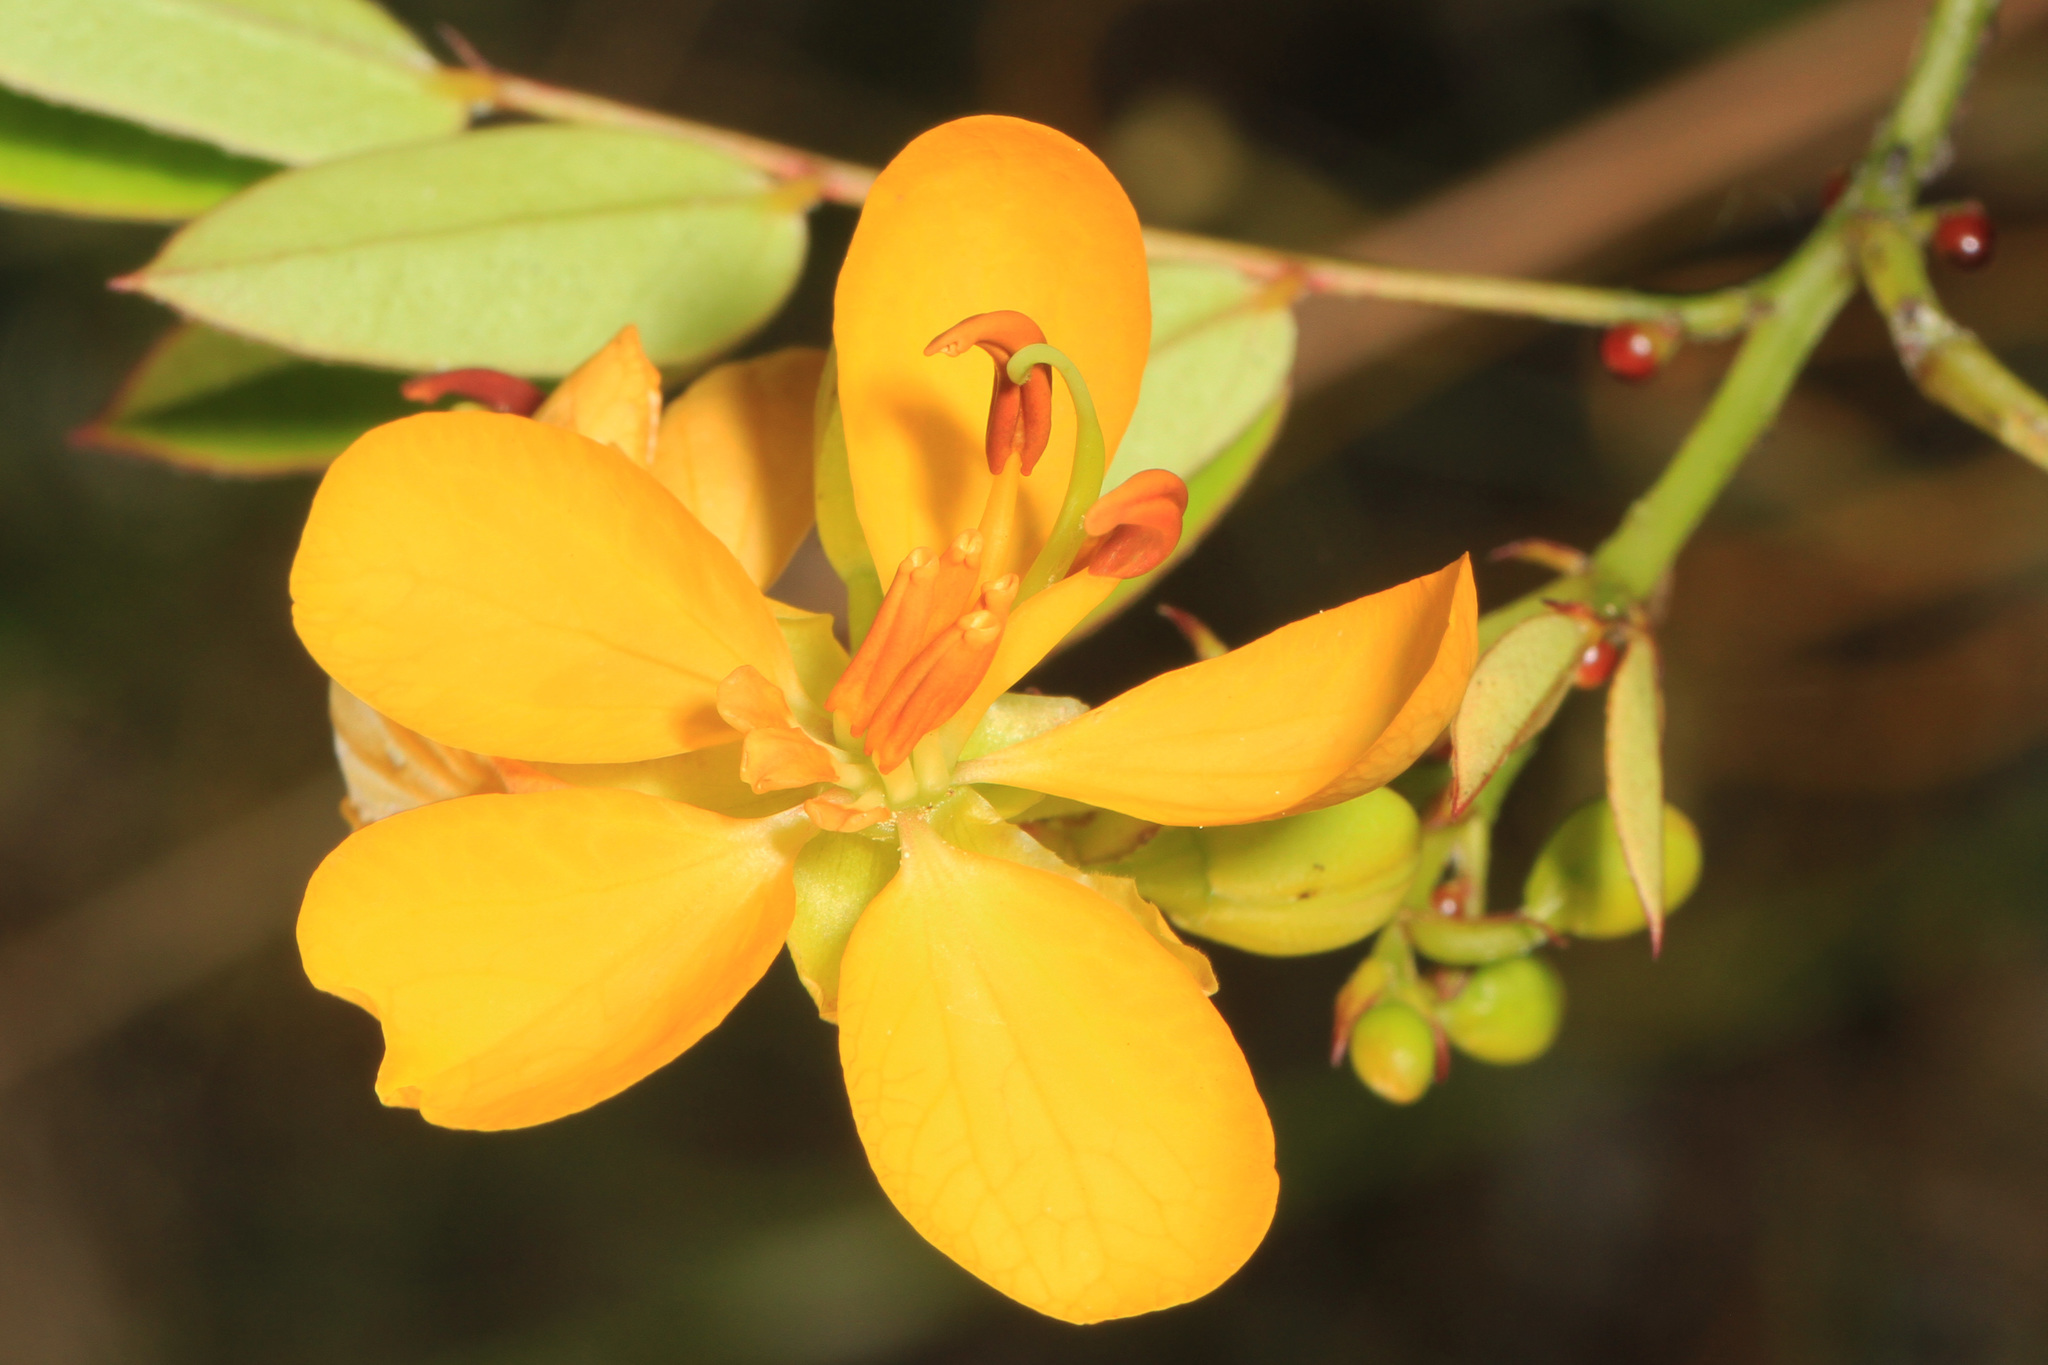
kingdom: Plantae
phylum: Tracheophyta
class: Magnoliopsida
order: Fabales
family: Fabaceae
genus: Senna
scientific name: Senna chapmanii
